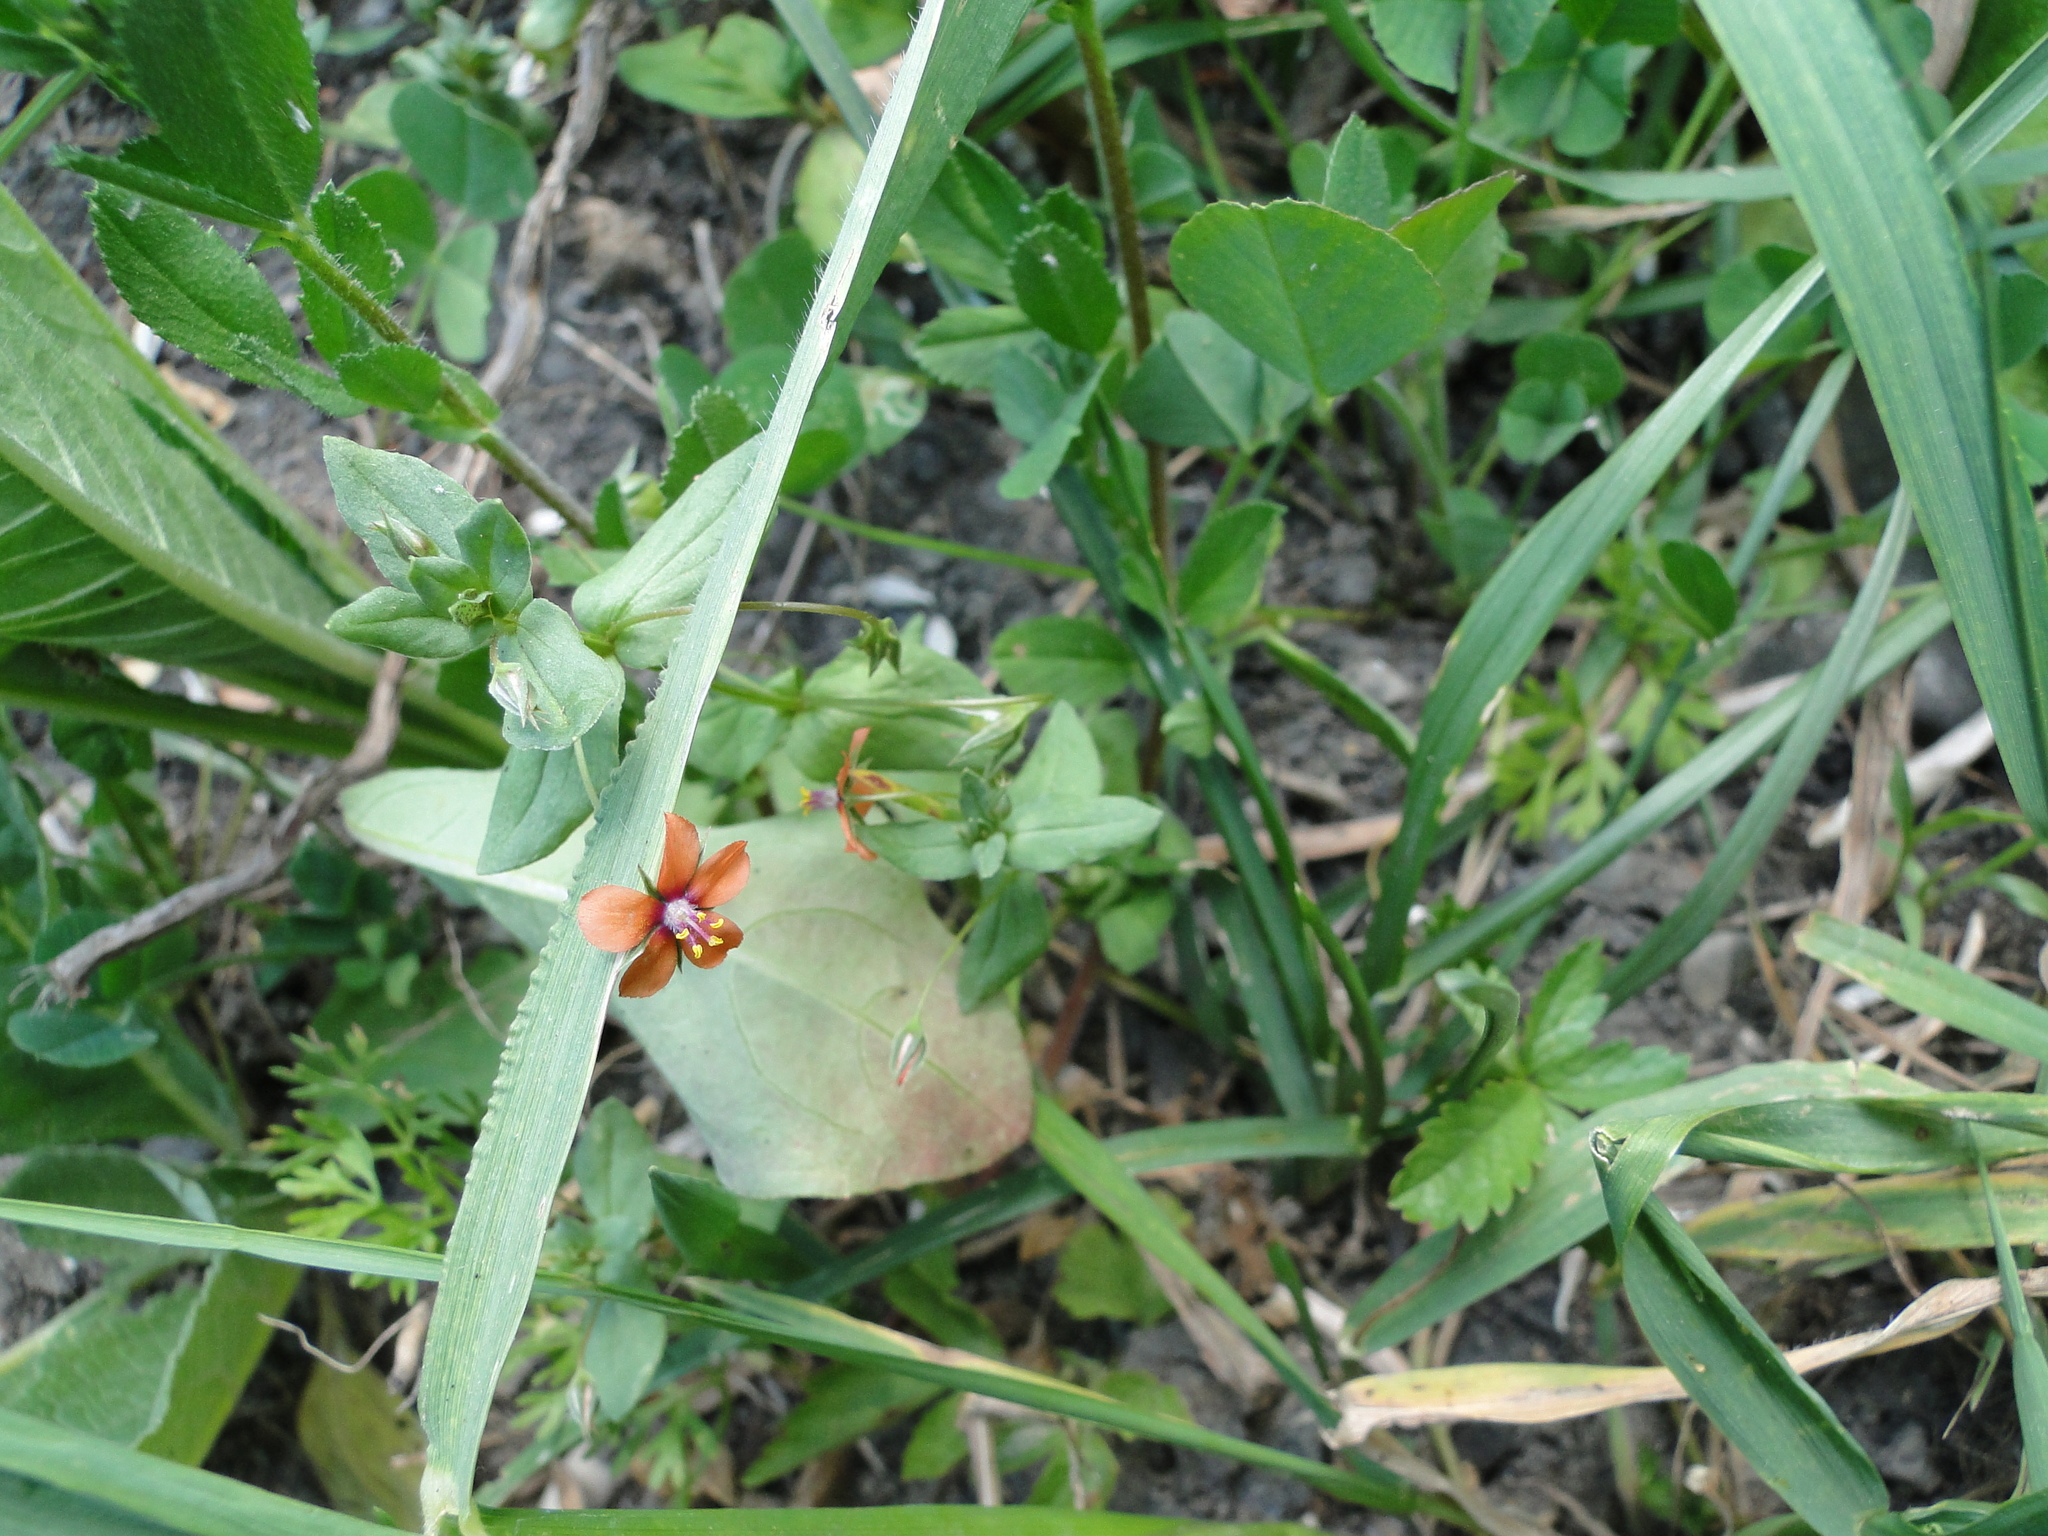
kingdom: Plantae
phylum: Tracheophyta
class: Magnoliopsida
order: Ericales
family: Primulaceae
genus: Lysimachia
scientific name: Lysimachia arvensis
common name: Scarlet pimpernel
